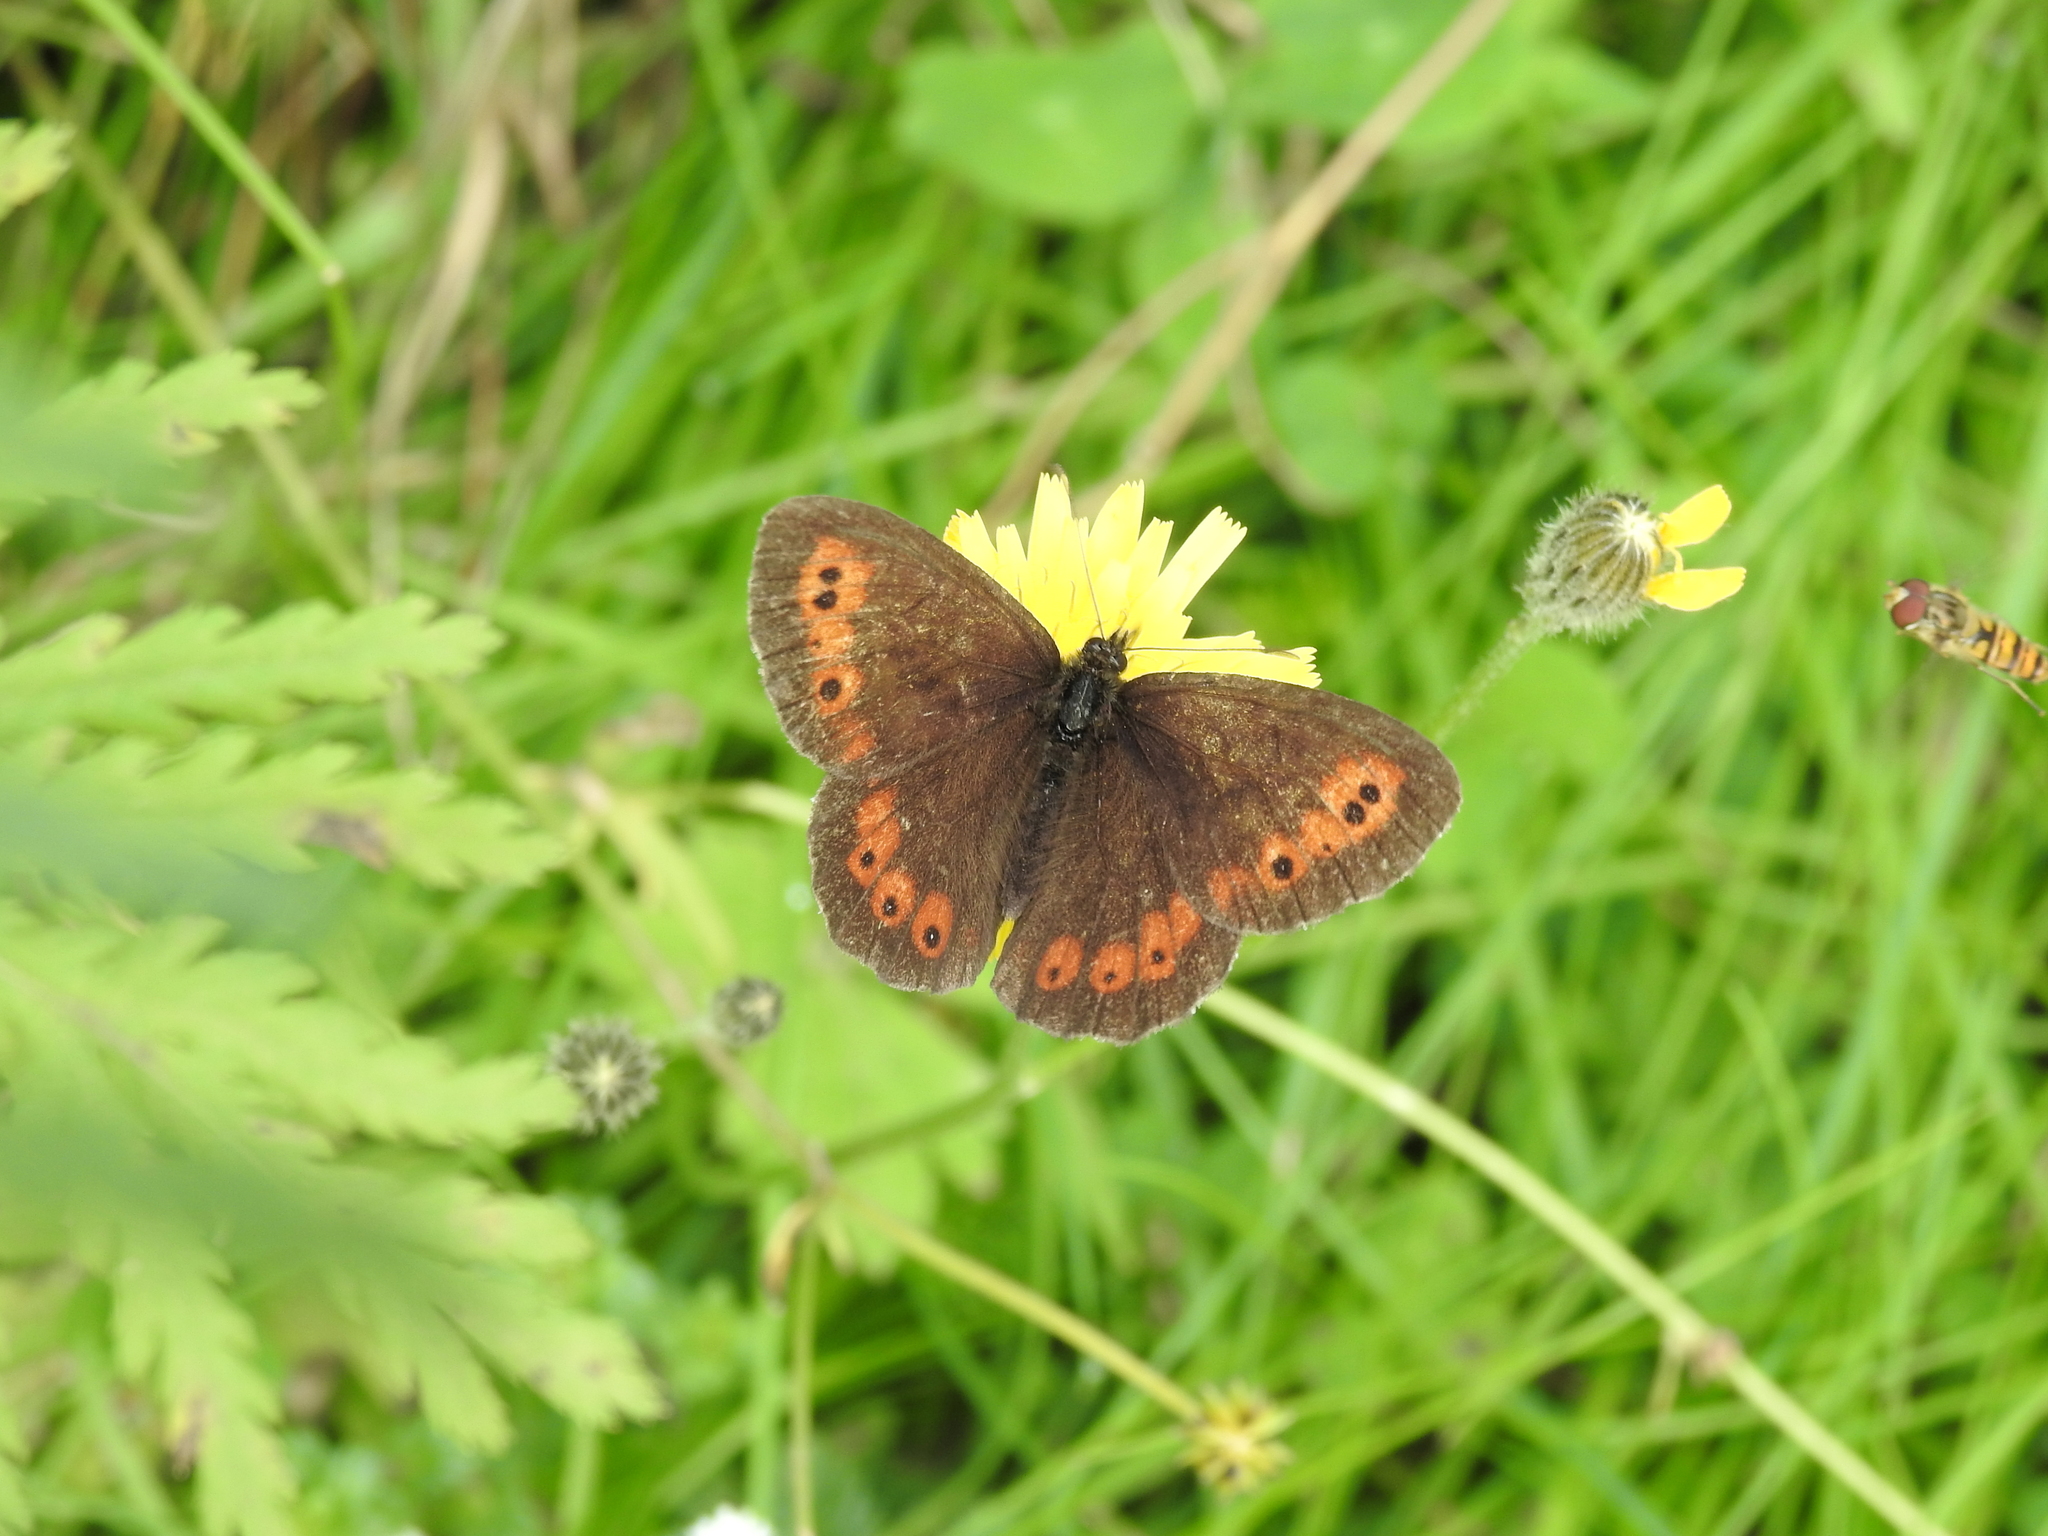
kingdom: Animalia
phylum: Arthropoda
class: Insecta
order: Lepidoptera
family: Nymphalidae
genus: Erebia
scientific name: Erebia ligea
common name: Arran brown
